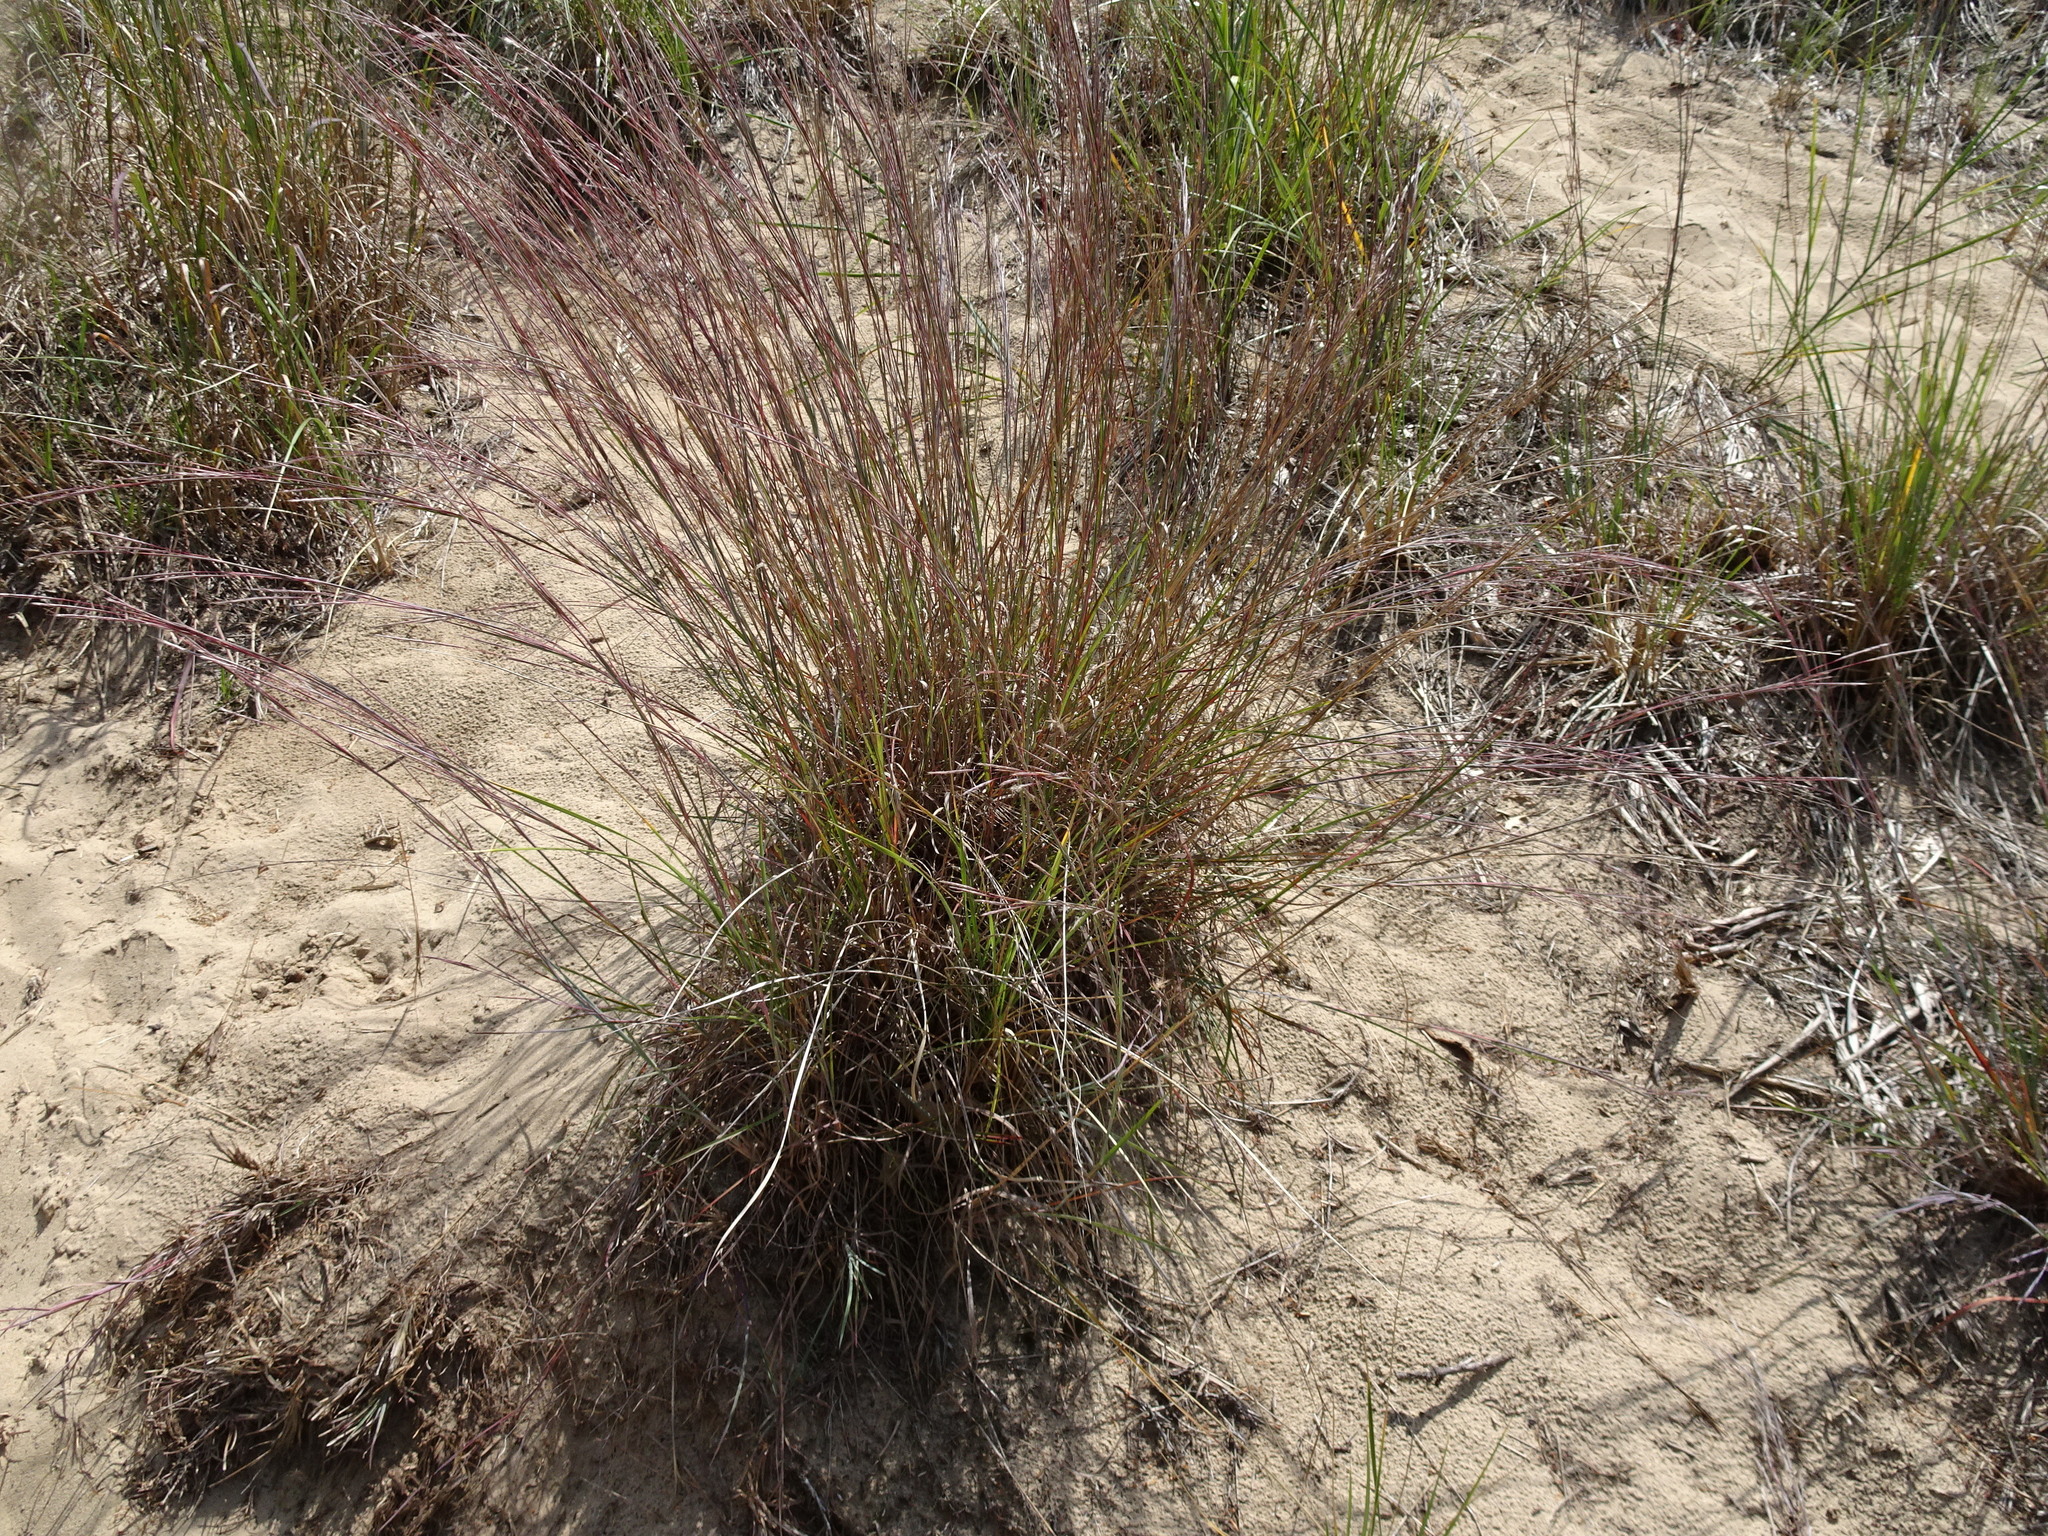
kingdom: Plantae
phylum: Tracheophyta
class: Liliopsida
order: Poales
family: Poaceae
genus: Schizachyrium
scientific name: Schizachyrium scoparium
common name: Little bluestem
